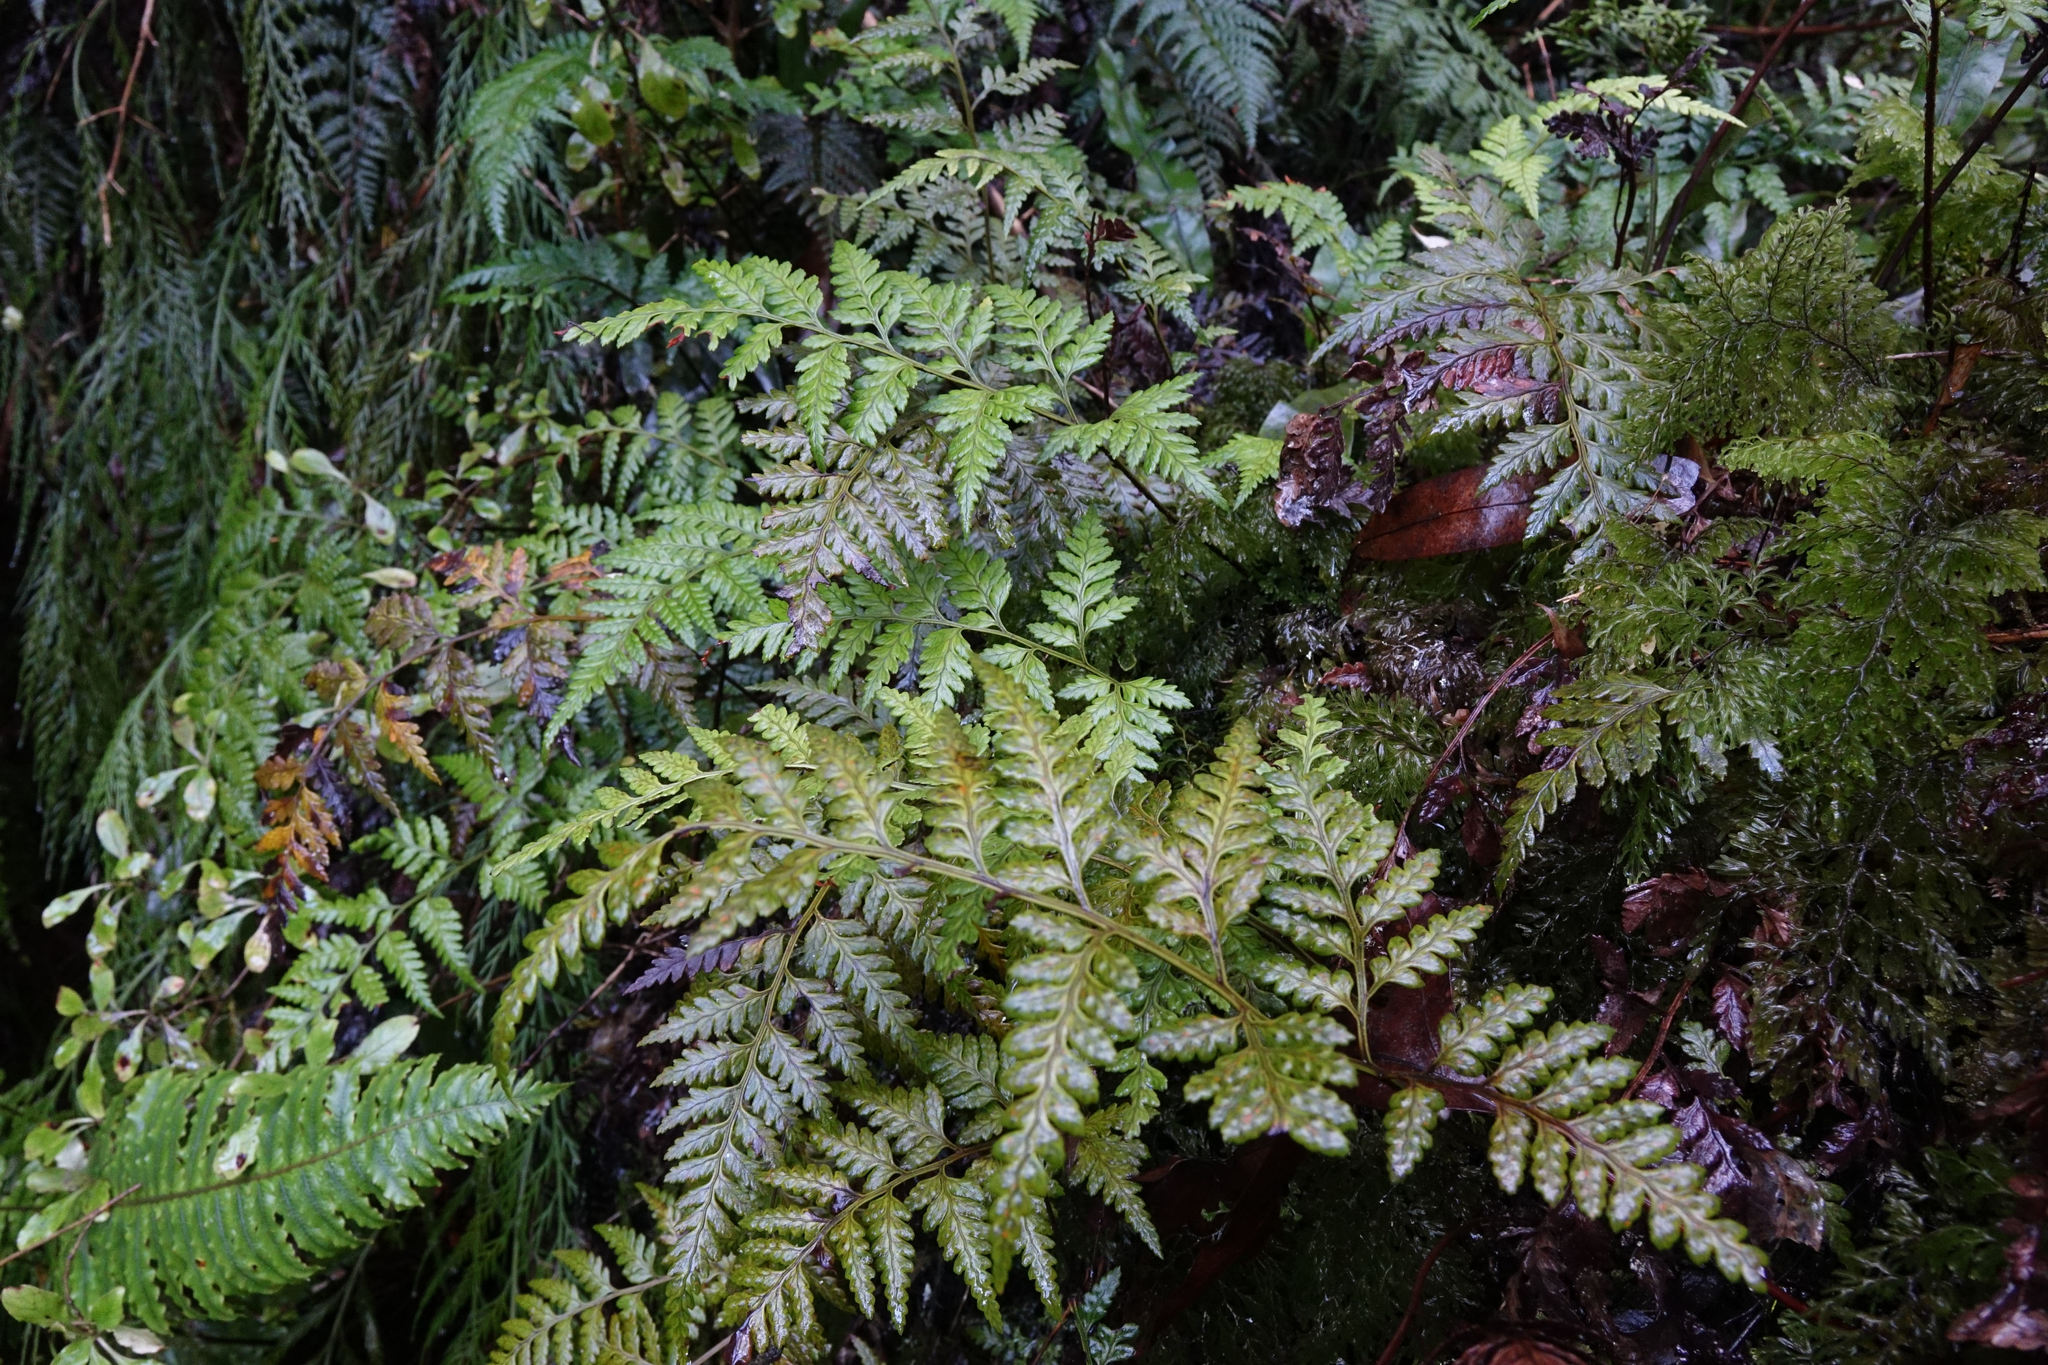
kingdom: Plantae
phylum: Tracheophyta
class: Polypodiopsida
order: Polypodiales
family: Dryopteridaceae
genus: Rumohra
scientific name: Rumohra adiantiformis
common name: Leather fern
